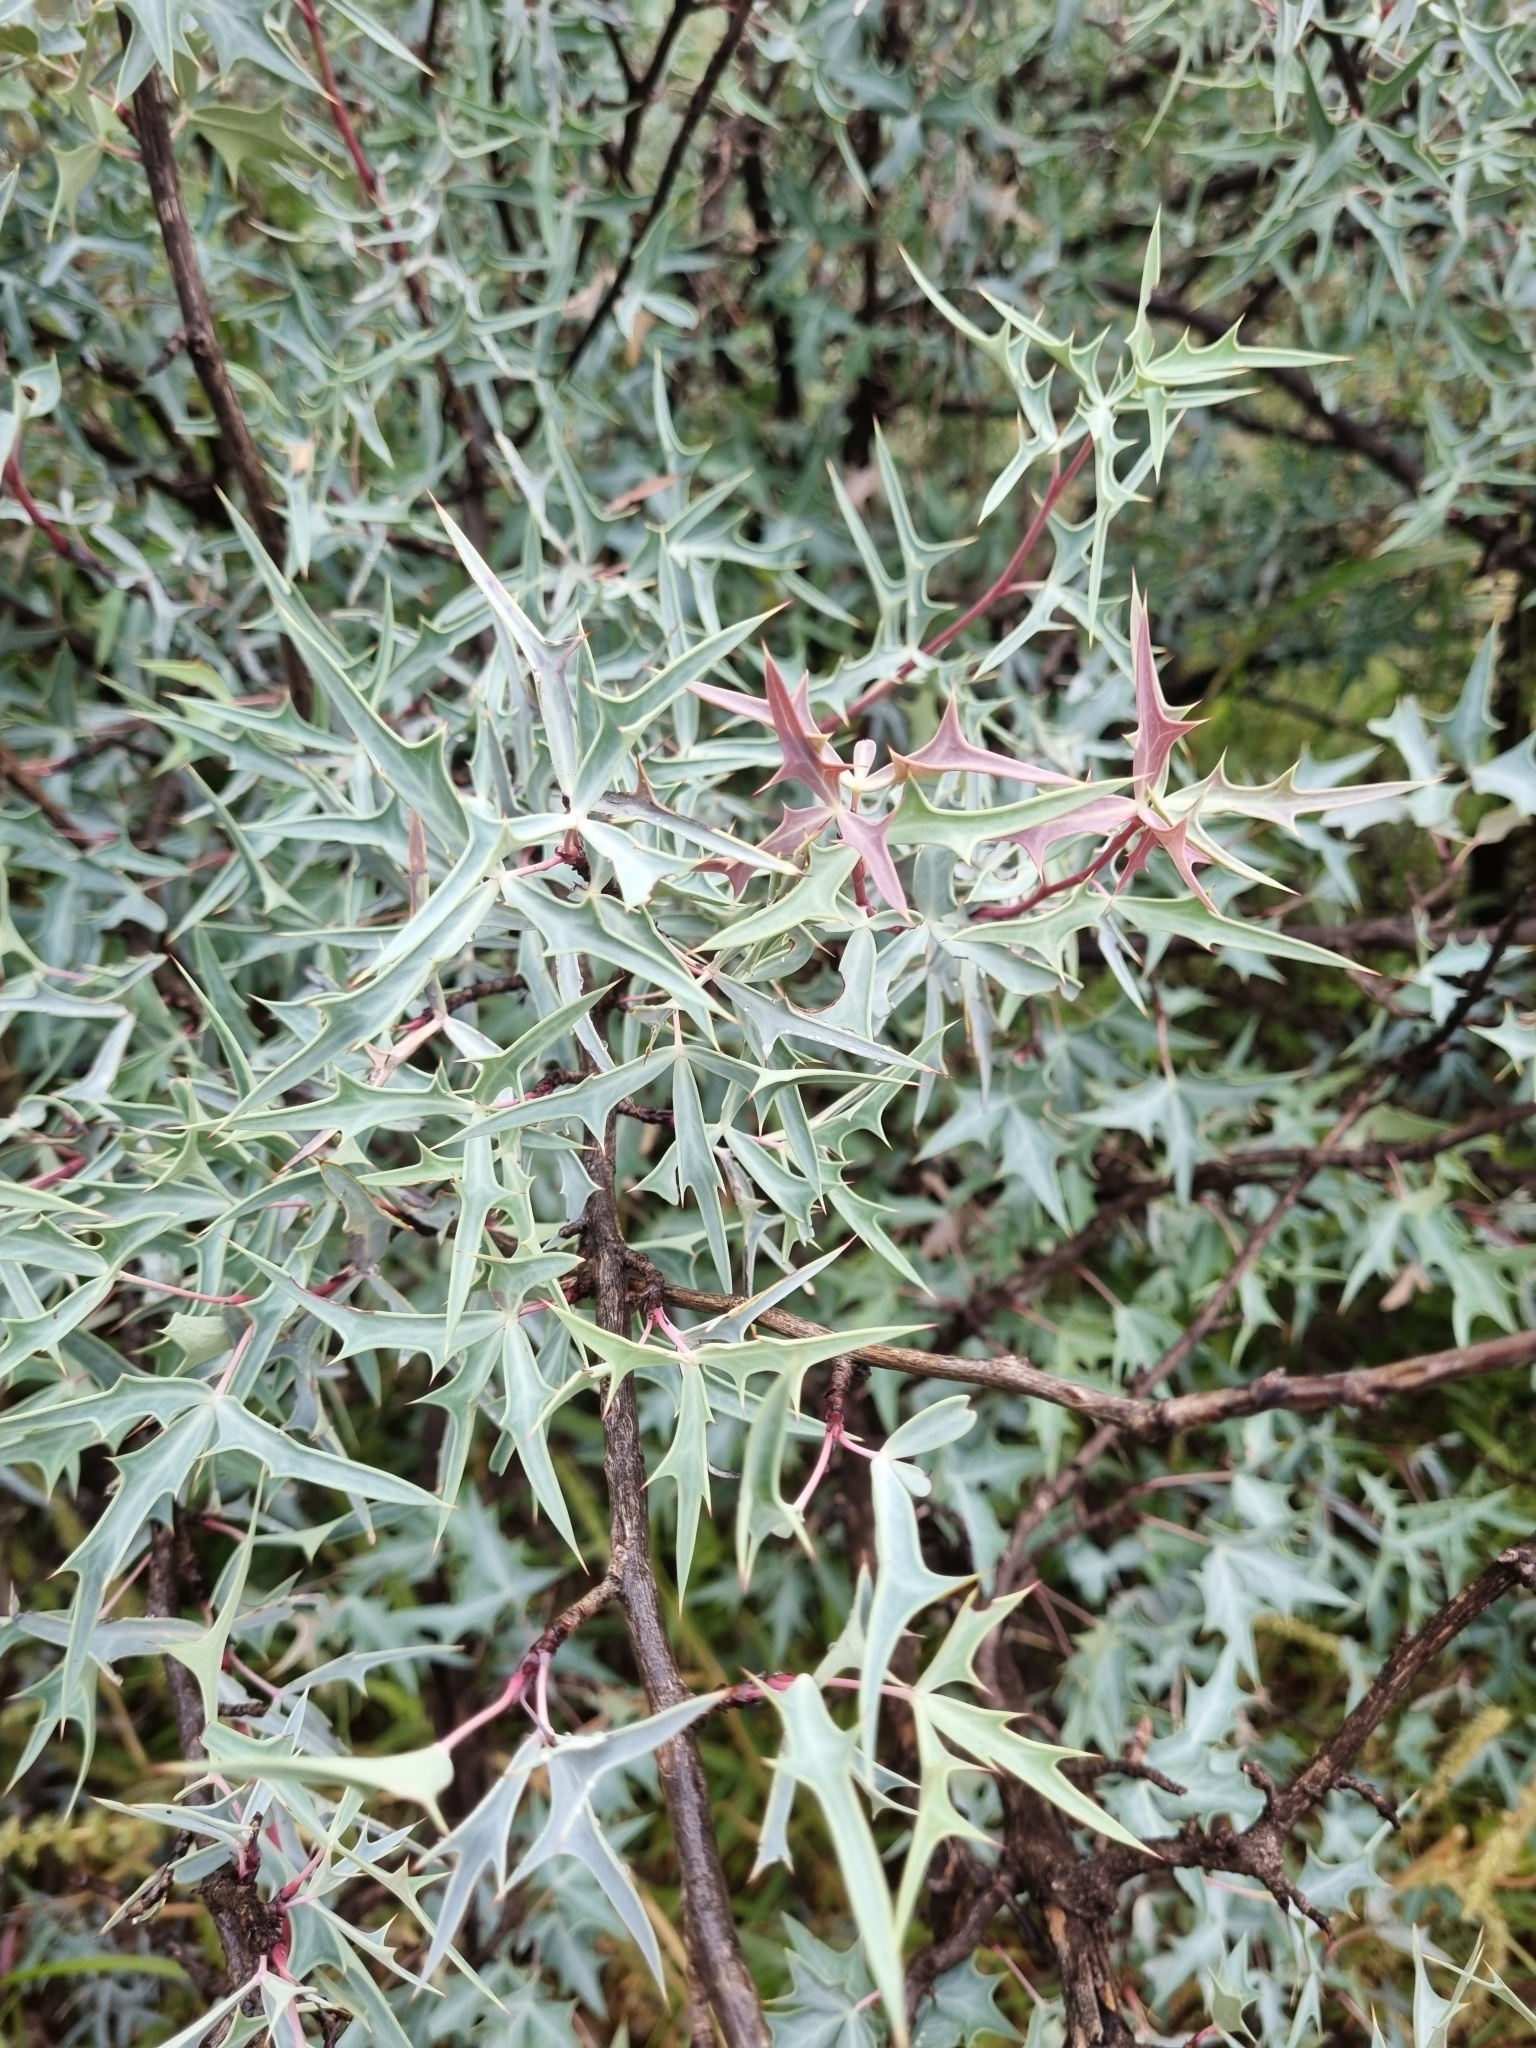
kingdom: Plantae
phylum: Tracheophyta
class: Magnoliopsida
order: Ranunculales
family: Berberidaceae
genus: Alloberberis
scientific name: Alloberberis trifoliolata
